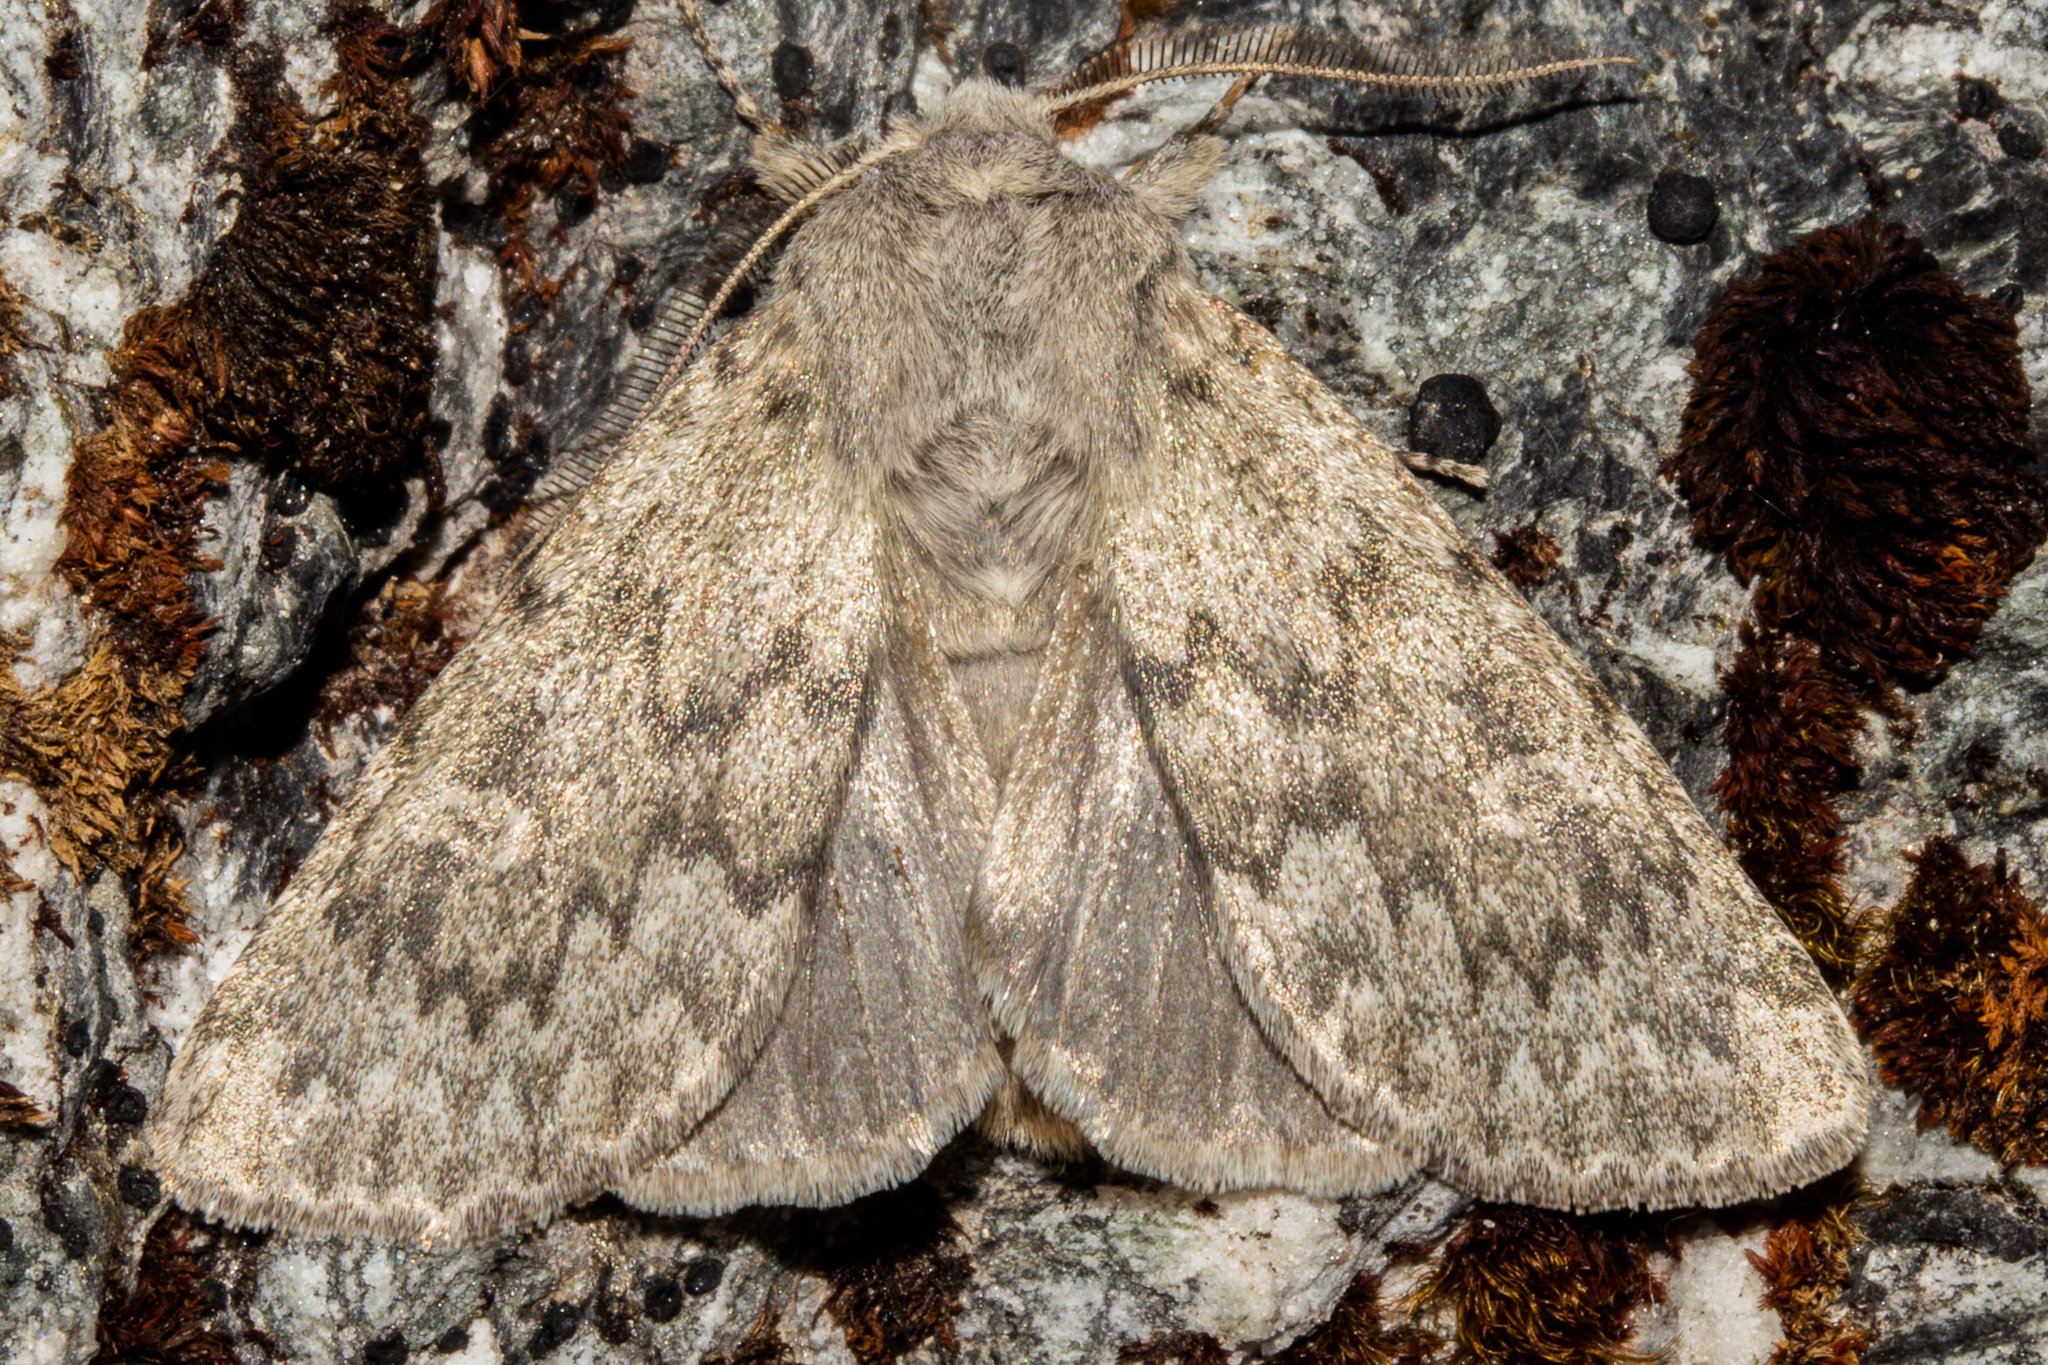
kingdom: Animalia
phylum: Arthropoda
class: Insecta
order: Lepidoptera
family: Noctuidae
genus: Ichneutica
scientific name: Ichneutica cana
